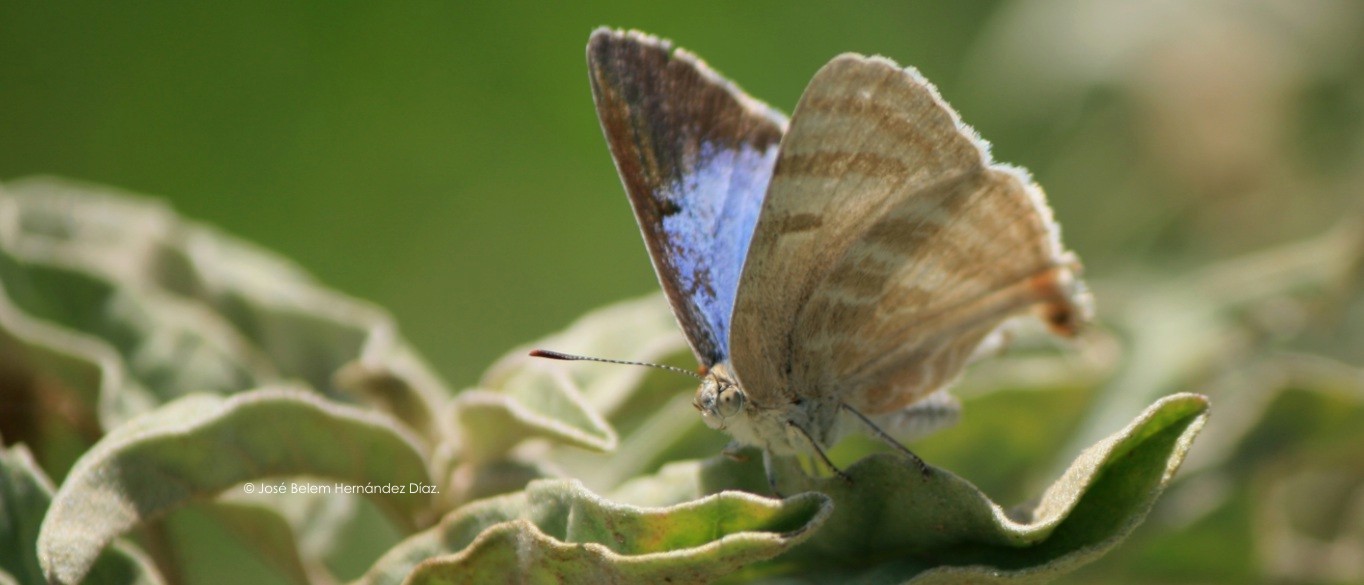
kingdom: Animalia
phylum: Arthropoda
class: Insecta
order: Lepidoptera
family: Lycaenidae
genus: Dolymorpha
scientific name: Dolymorpha jada
